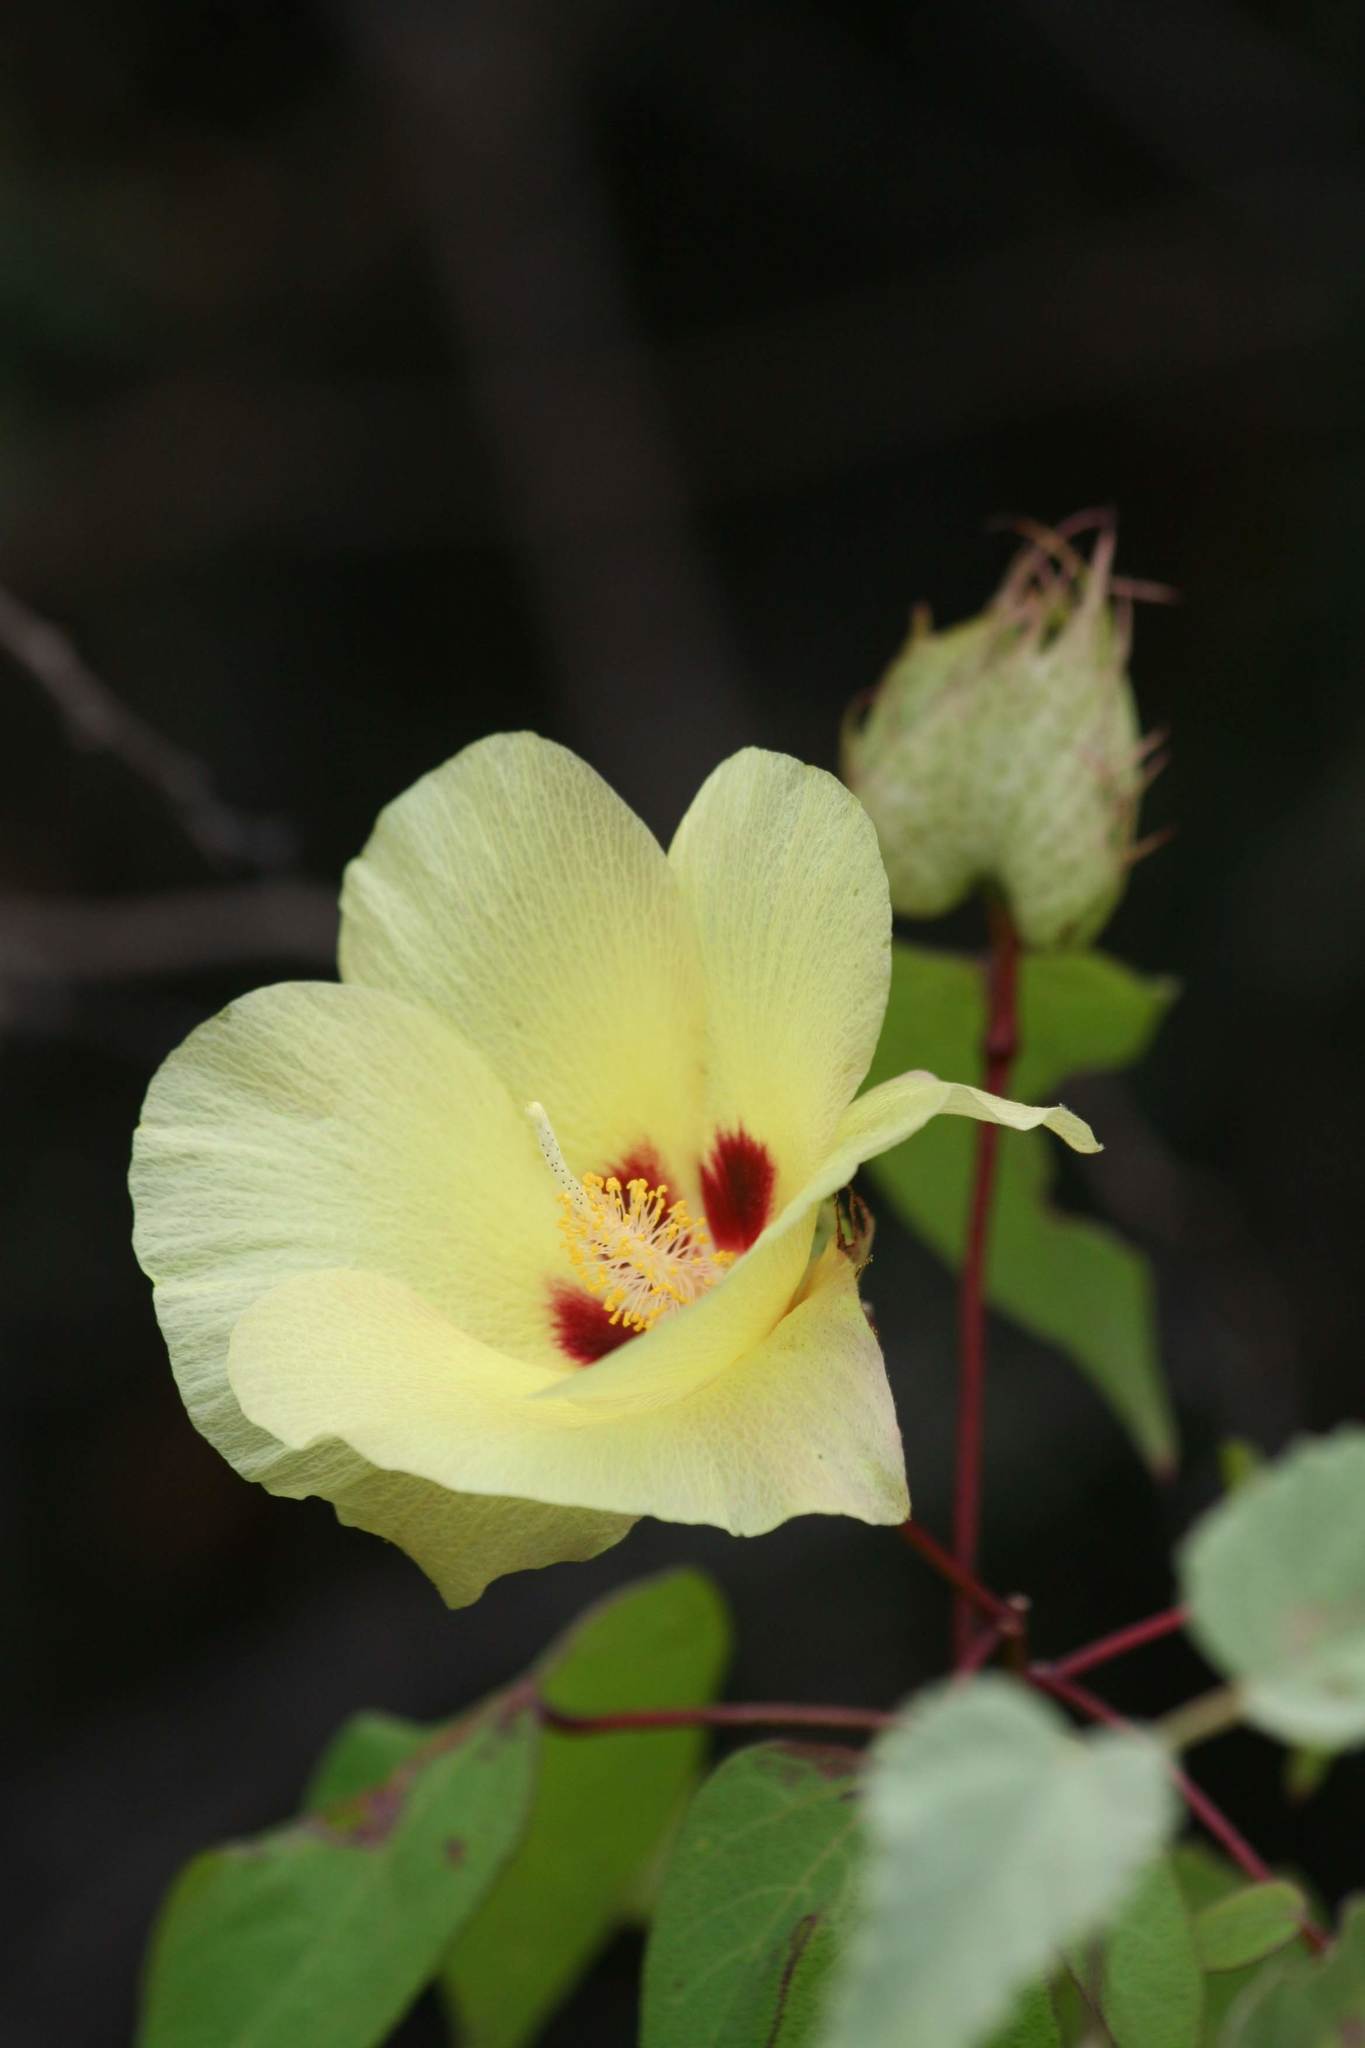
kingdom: Plantae
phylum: Tracheophyta
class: Magnoliopsida
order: Malvales
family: Malvaceae
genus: Gossypium
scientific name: Gossypium darwinii
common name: Darwin's cotton
